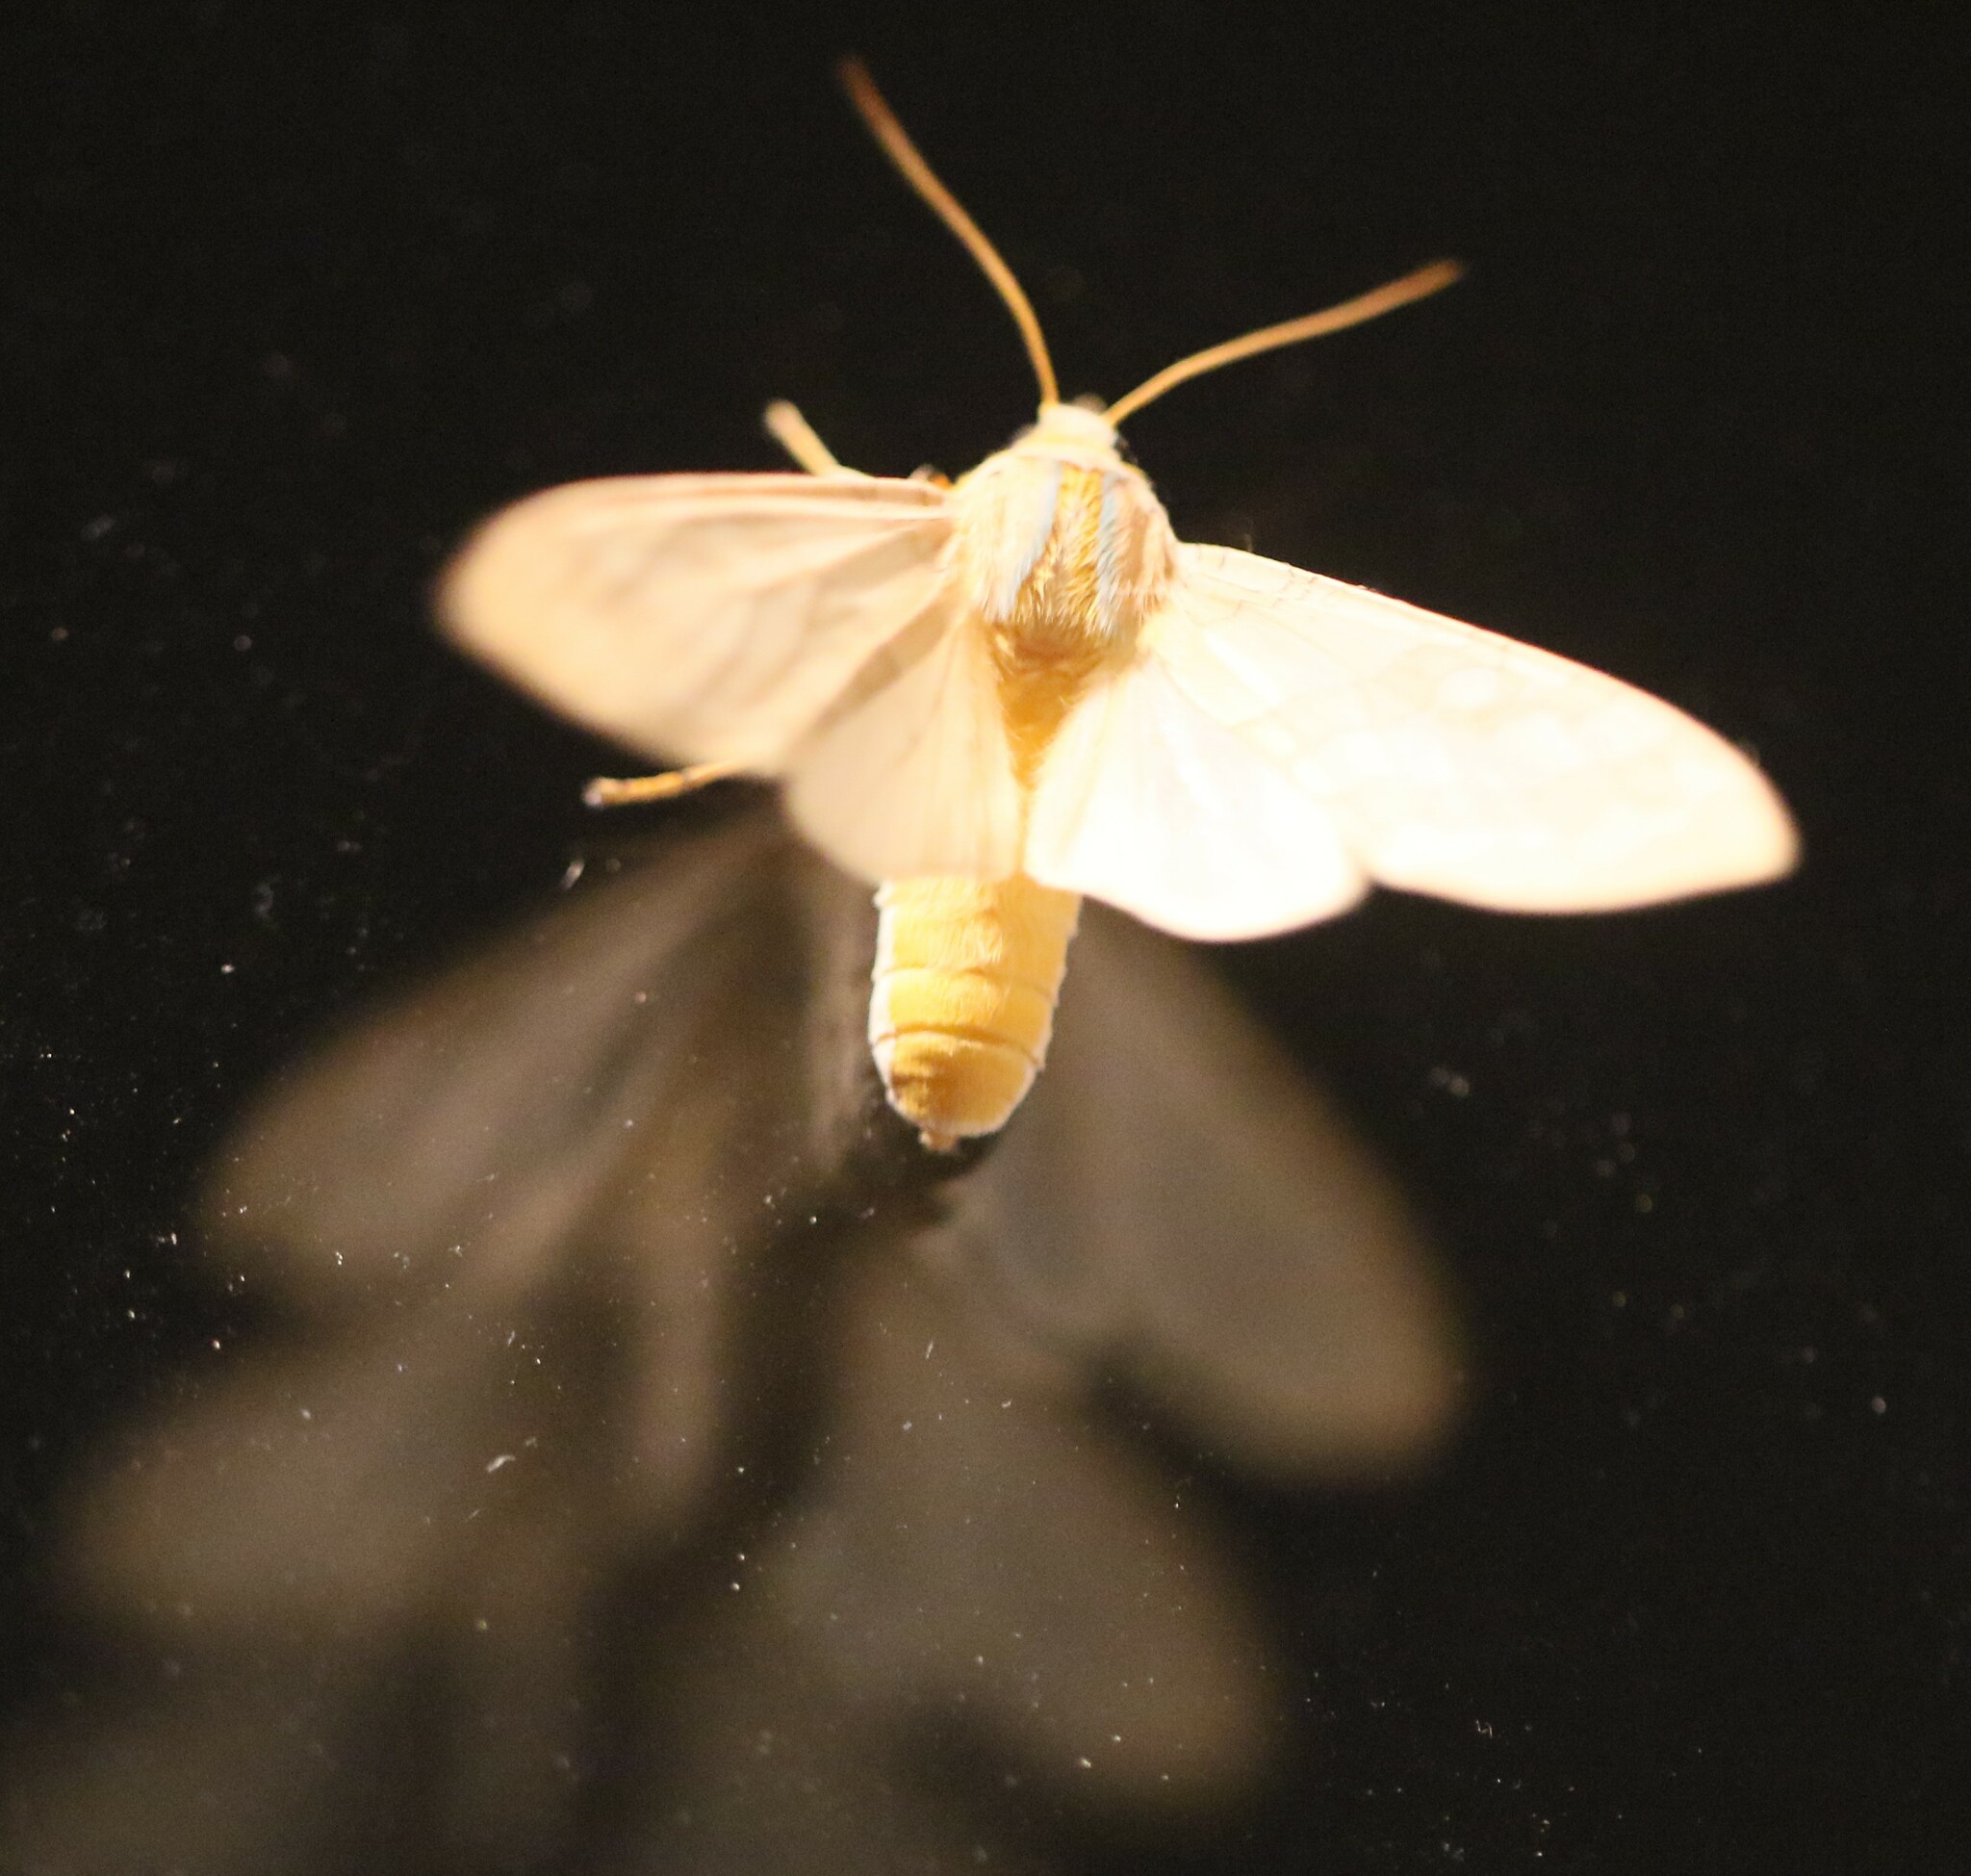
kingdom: Animalia
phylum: Arthropoda
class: Insecta
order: Lepidoptera
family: Erebidae
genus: Halysidota
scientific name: Halysidota tessellaris
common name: Banded tussock moth
